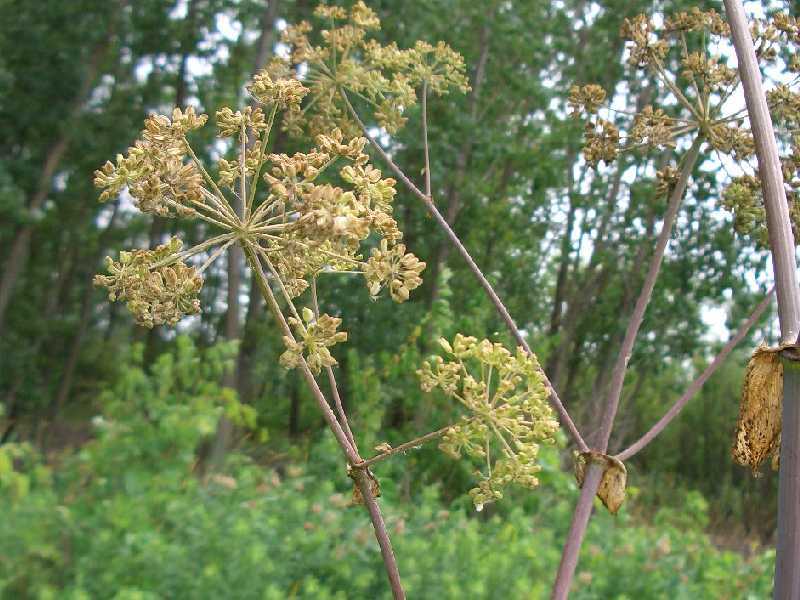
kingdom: Plantae
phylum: Tracheophyta
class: Magnoliopsida
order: Apiales
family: Apiaceae
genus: Angelica
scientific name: Angelica atropurpurea
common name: Great angelica
